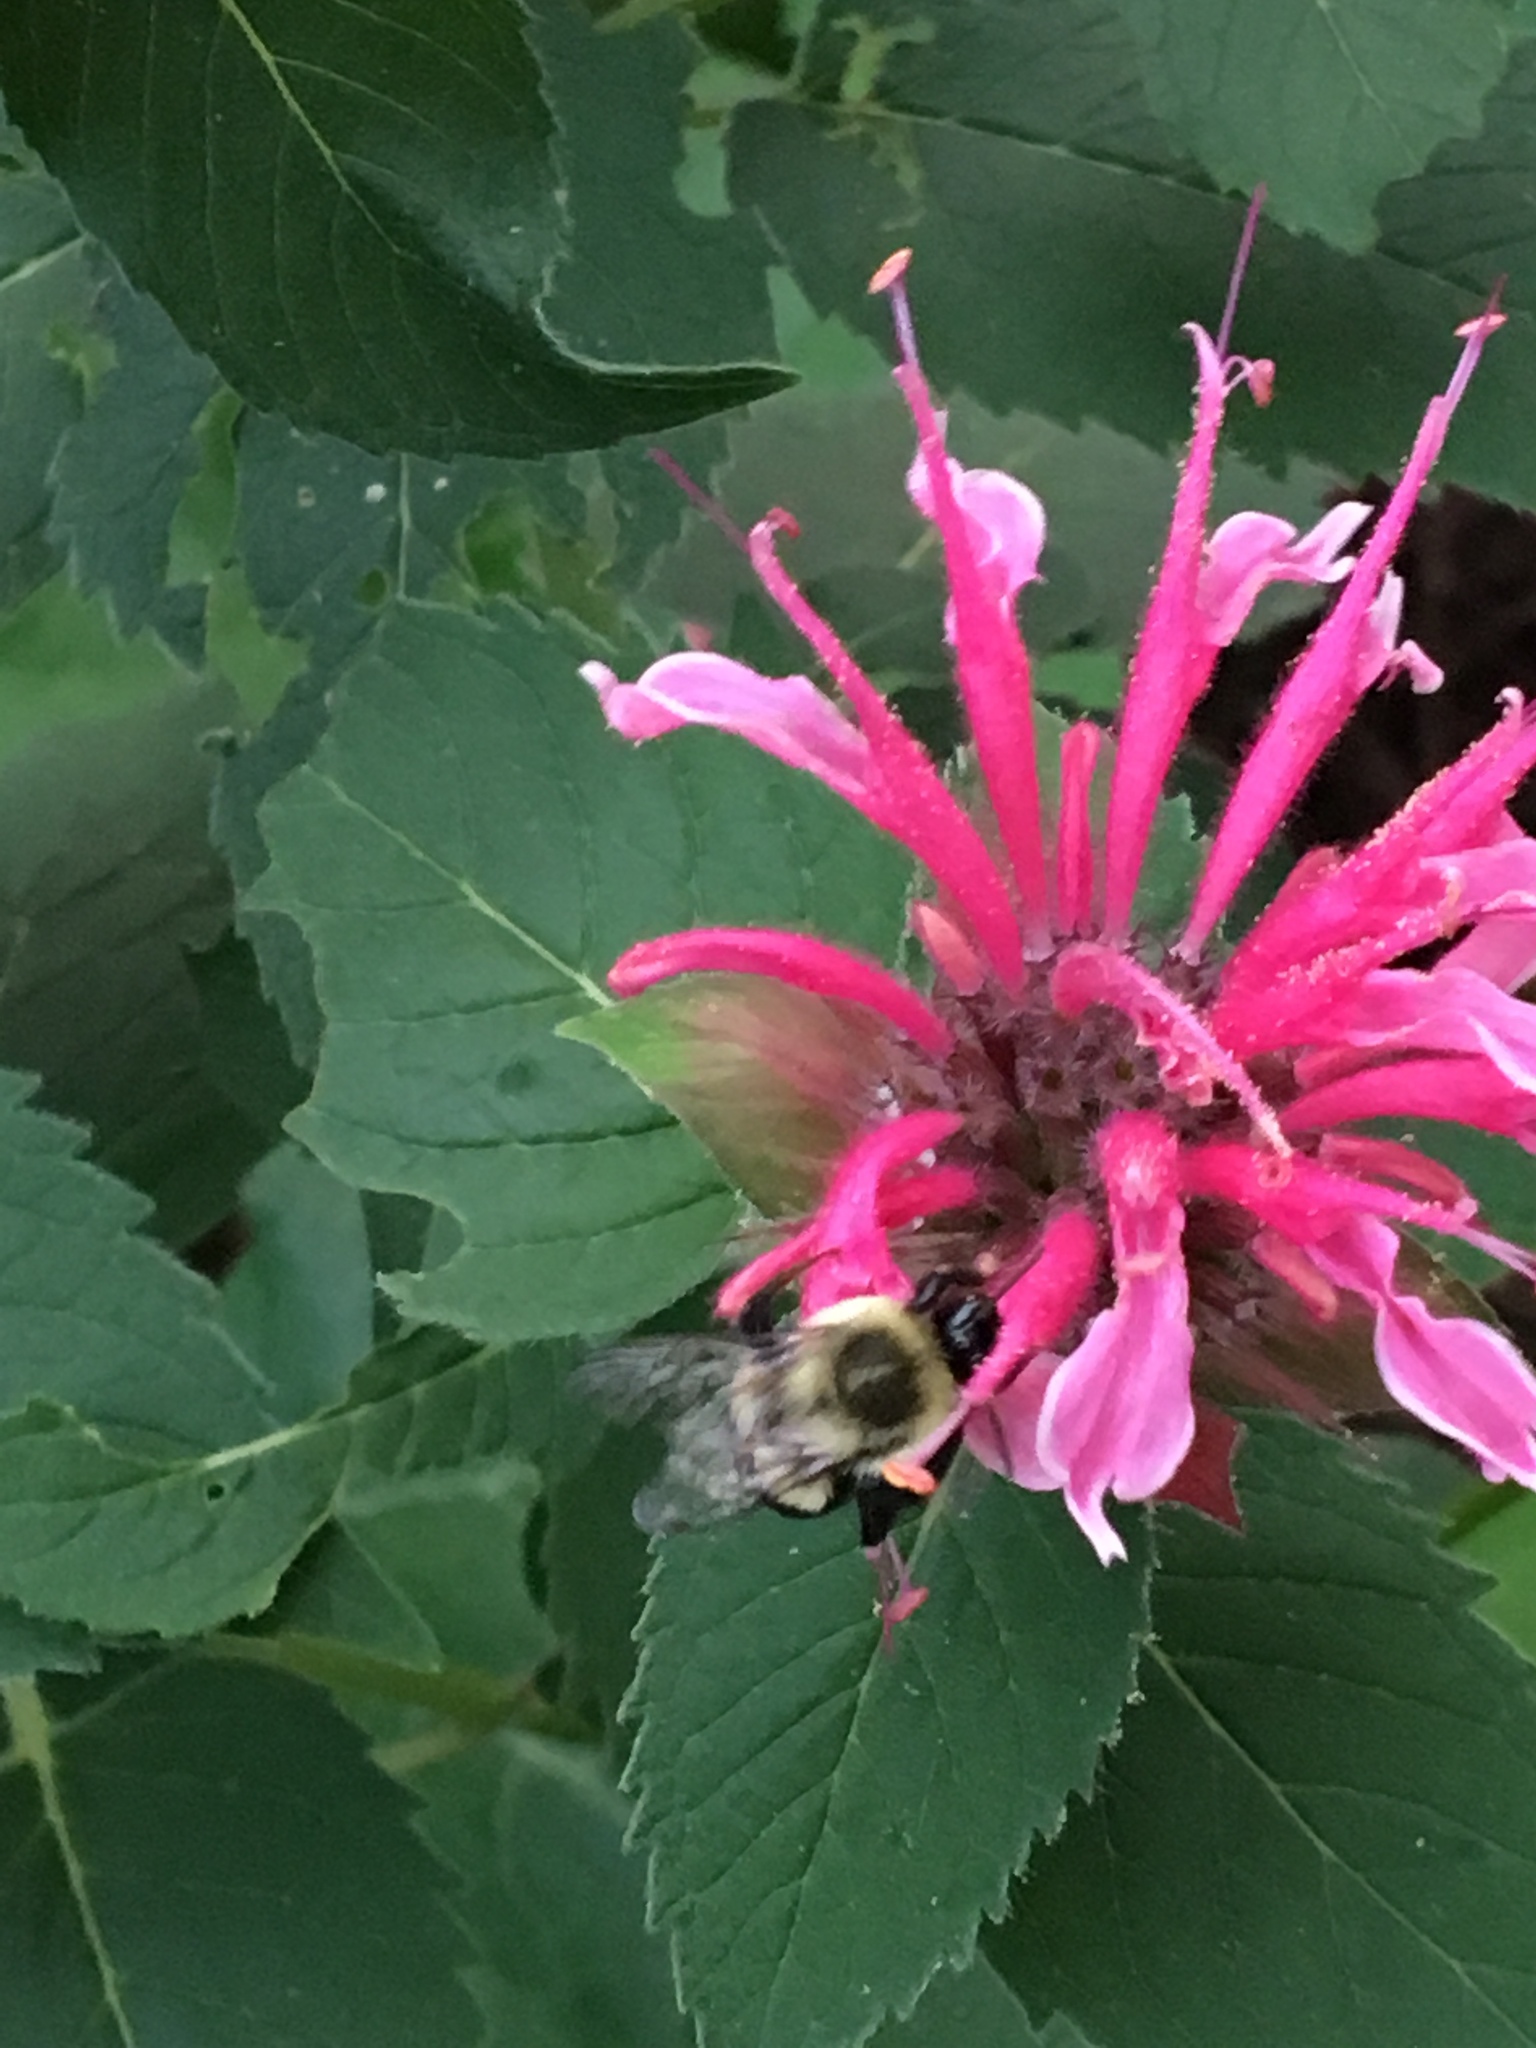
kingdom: Animalia
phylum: Arthropoda
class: Insecta
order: Hymenoptera
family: Apidae
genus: Bombus
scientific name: Bombus impatiens
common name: Common eastern bumble bee
